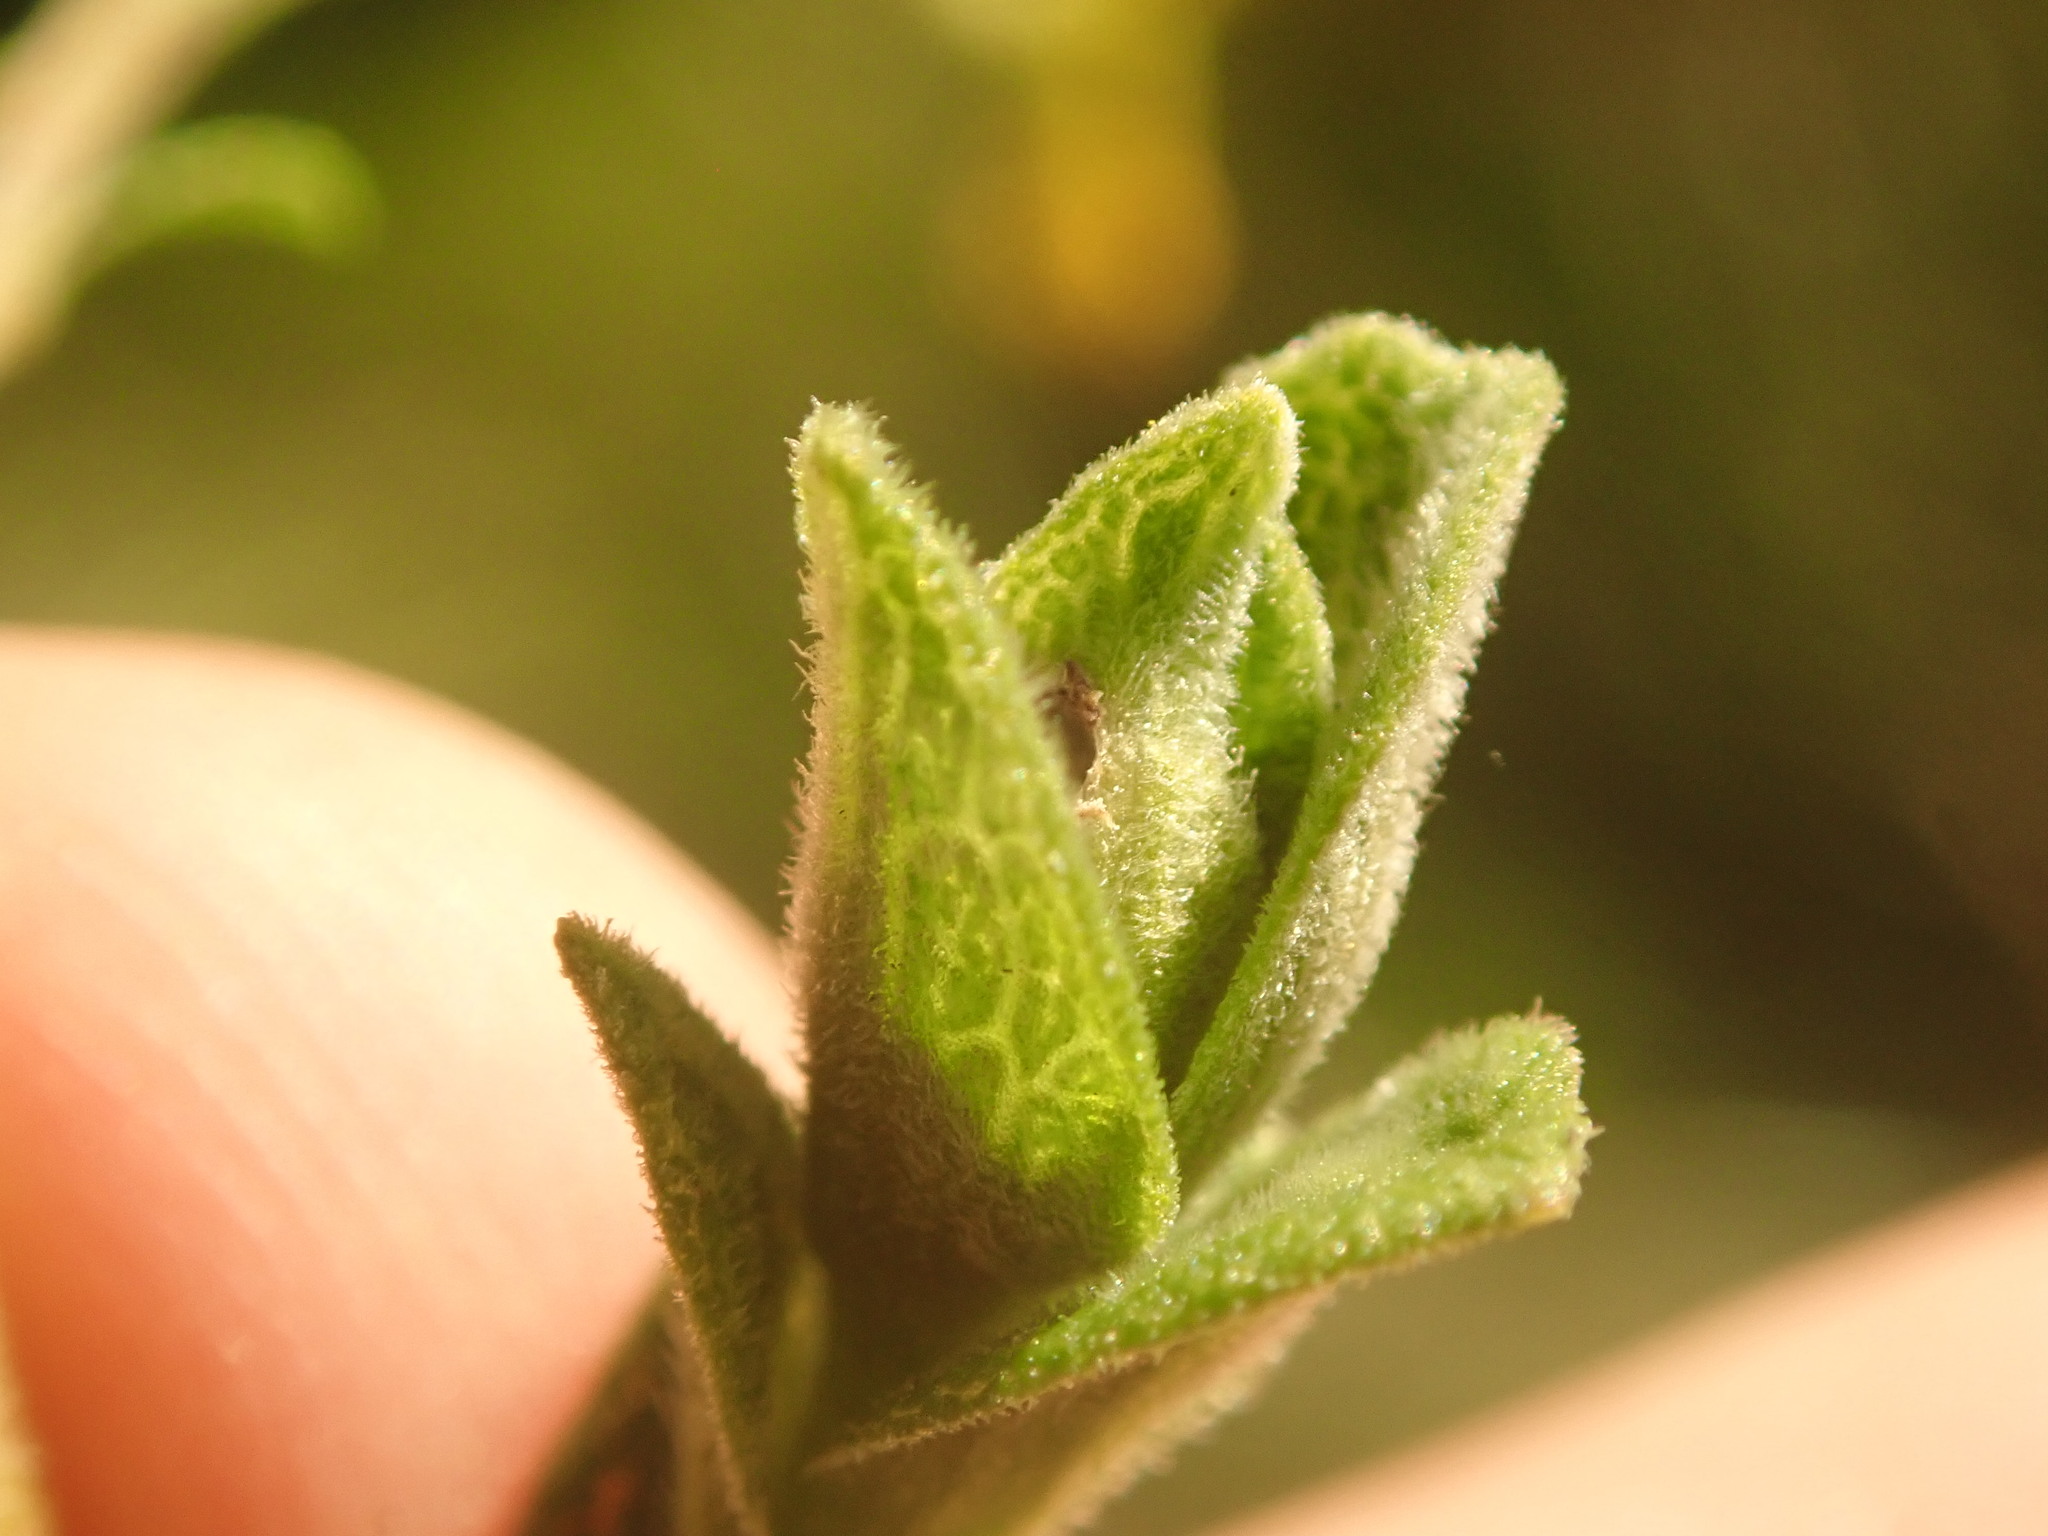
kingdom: Animalia
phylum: Arthropoda
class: Insecta
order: Diptera
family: Cecidomyiidae
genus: Asphondylia
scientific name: Asphondylia solidaginis
